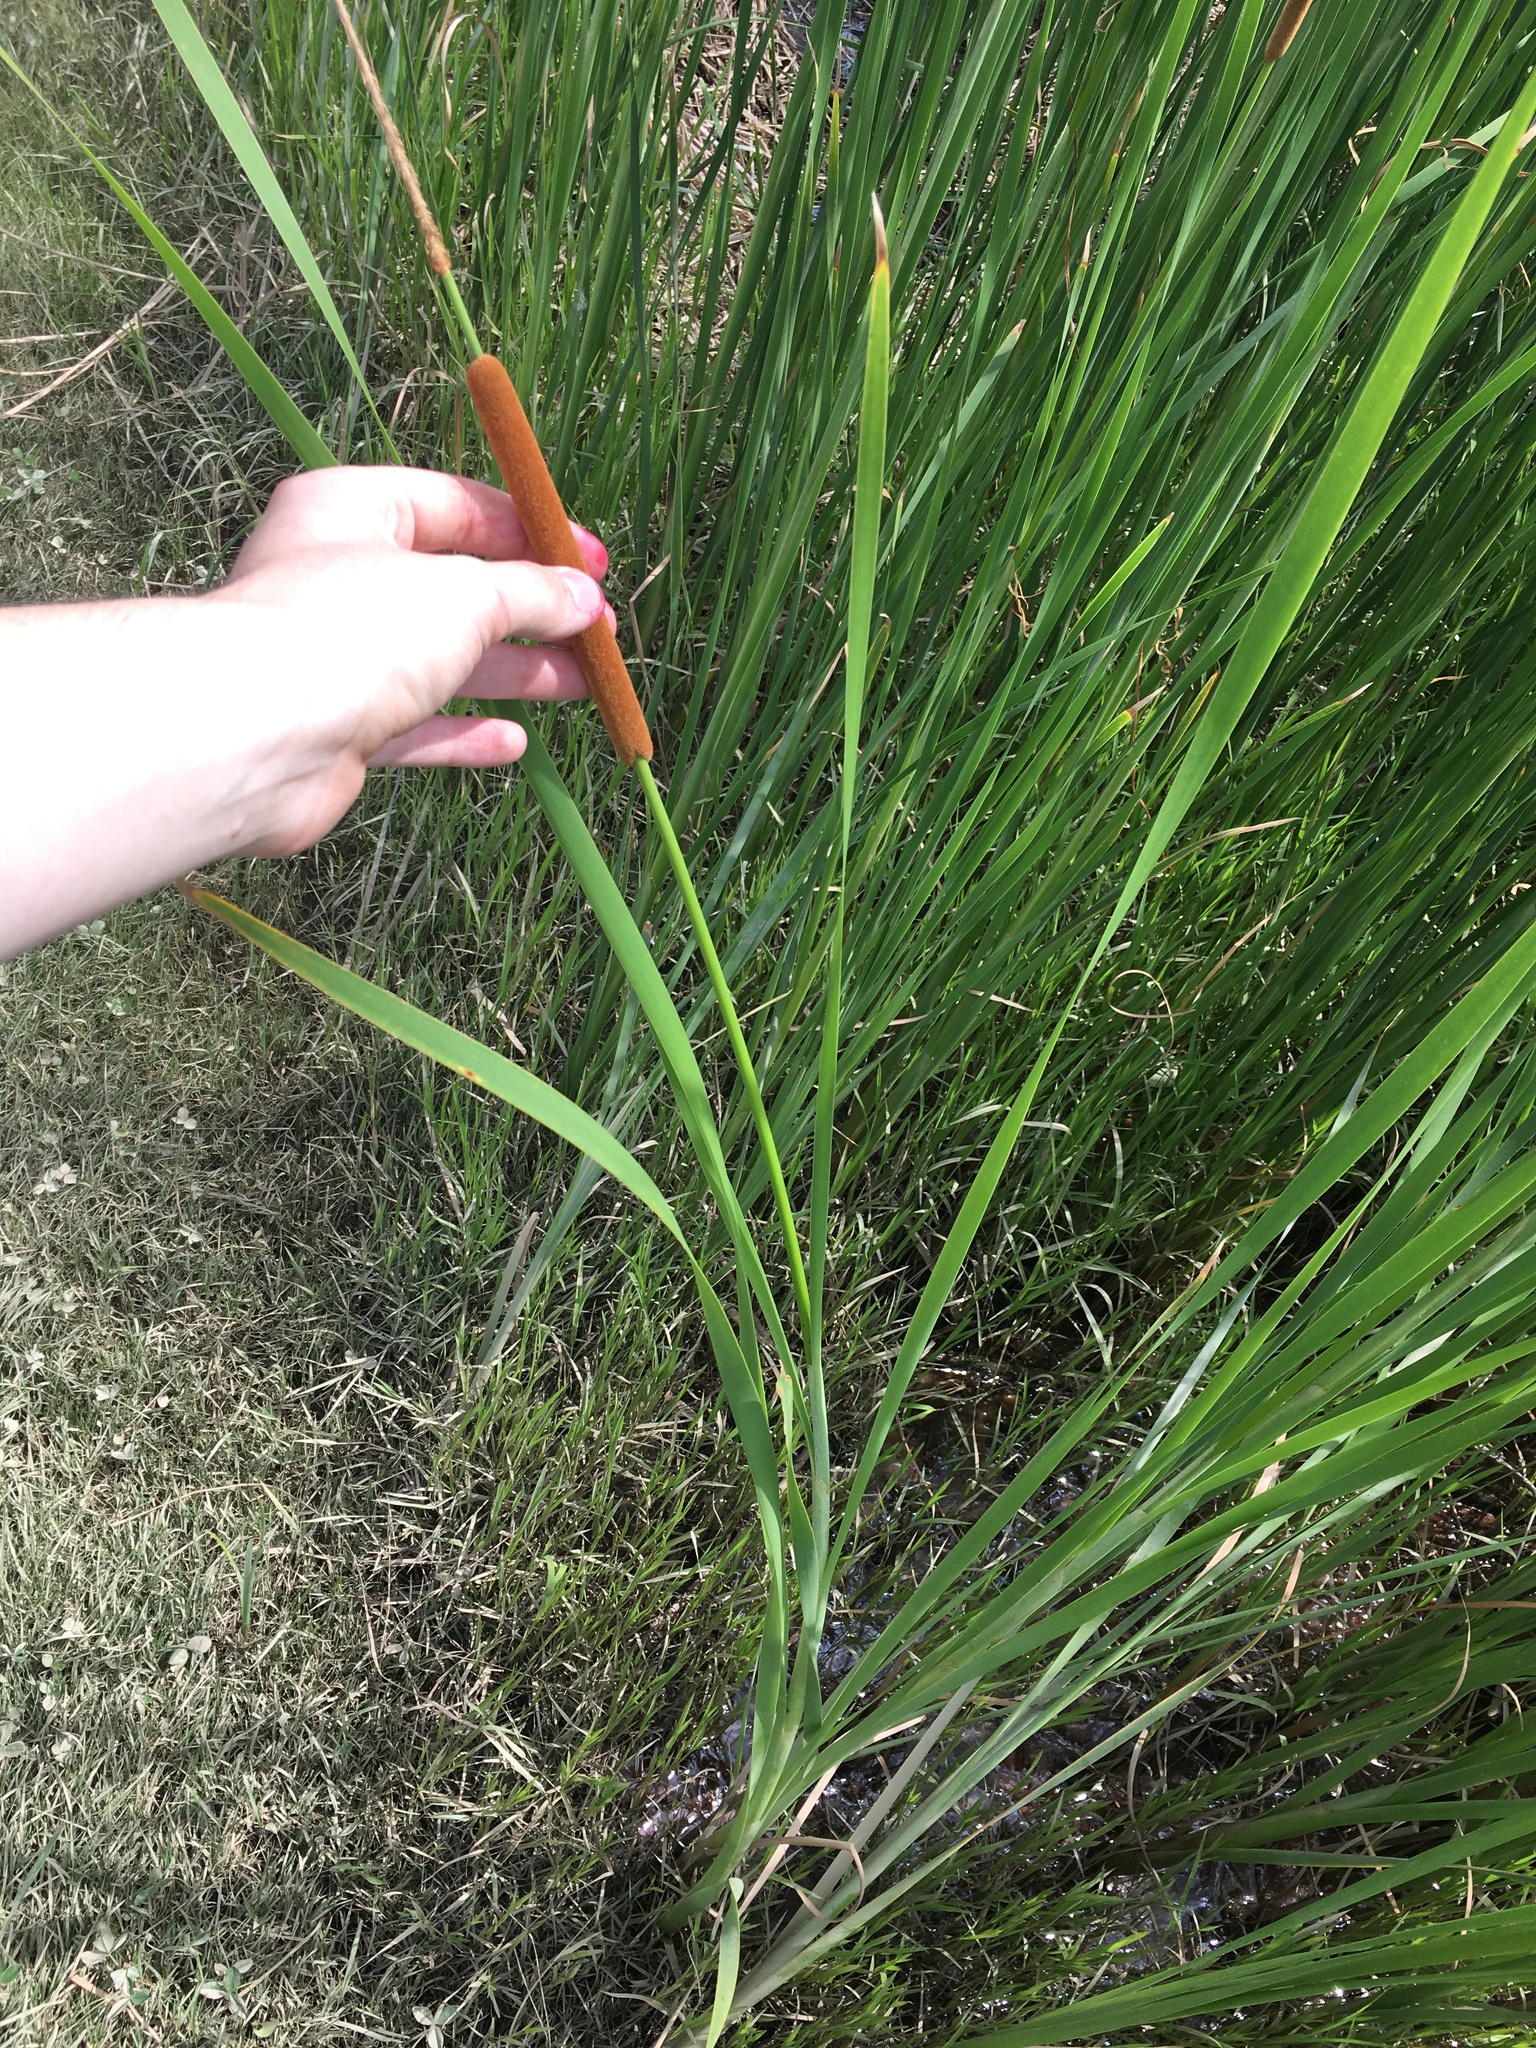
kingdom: Plantae
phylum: Tracheophyta
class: Liliopsida
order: Poales
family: Typhaceae
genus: Typha
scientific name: Typha angustifolia
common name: Lesser bulrush
